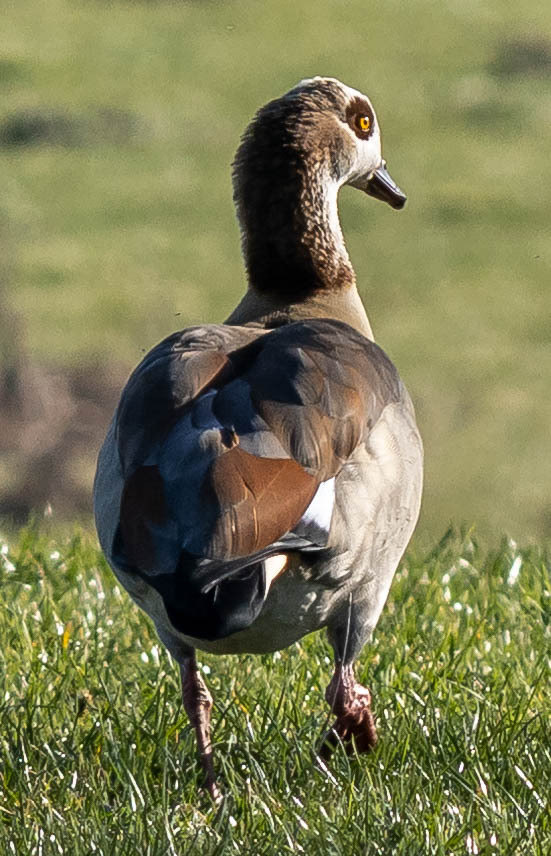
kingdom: Animalia
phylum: Chordata
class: Aves
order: Anseriformes
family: Anatidae
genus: Alopochen
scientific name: Alopochen aegyptiaca
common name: Egyptian goose
